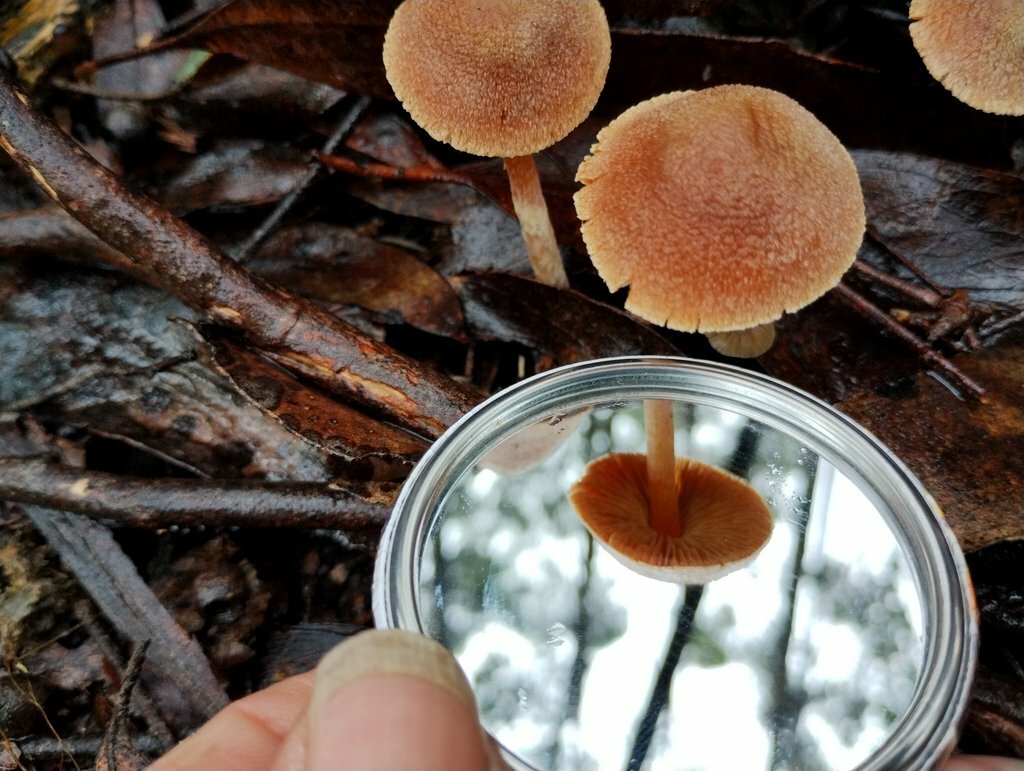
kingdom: Fungi
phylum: Basidiomycota
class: Agaricomycetes
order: Agaricales
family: Inocybaceae
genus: Inocybe
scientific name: Inocybe austrofibrillosa
